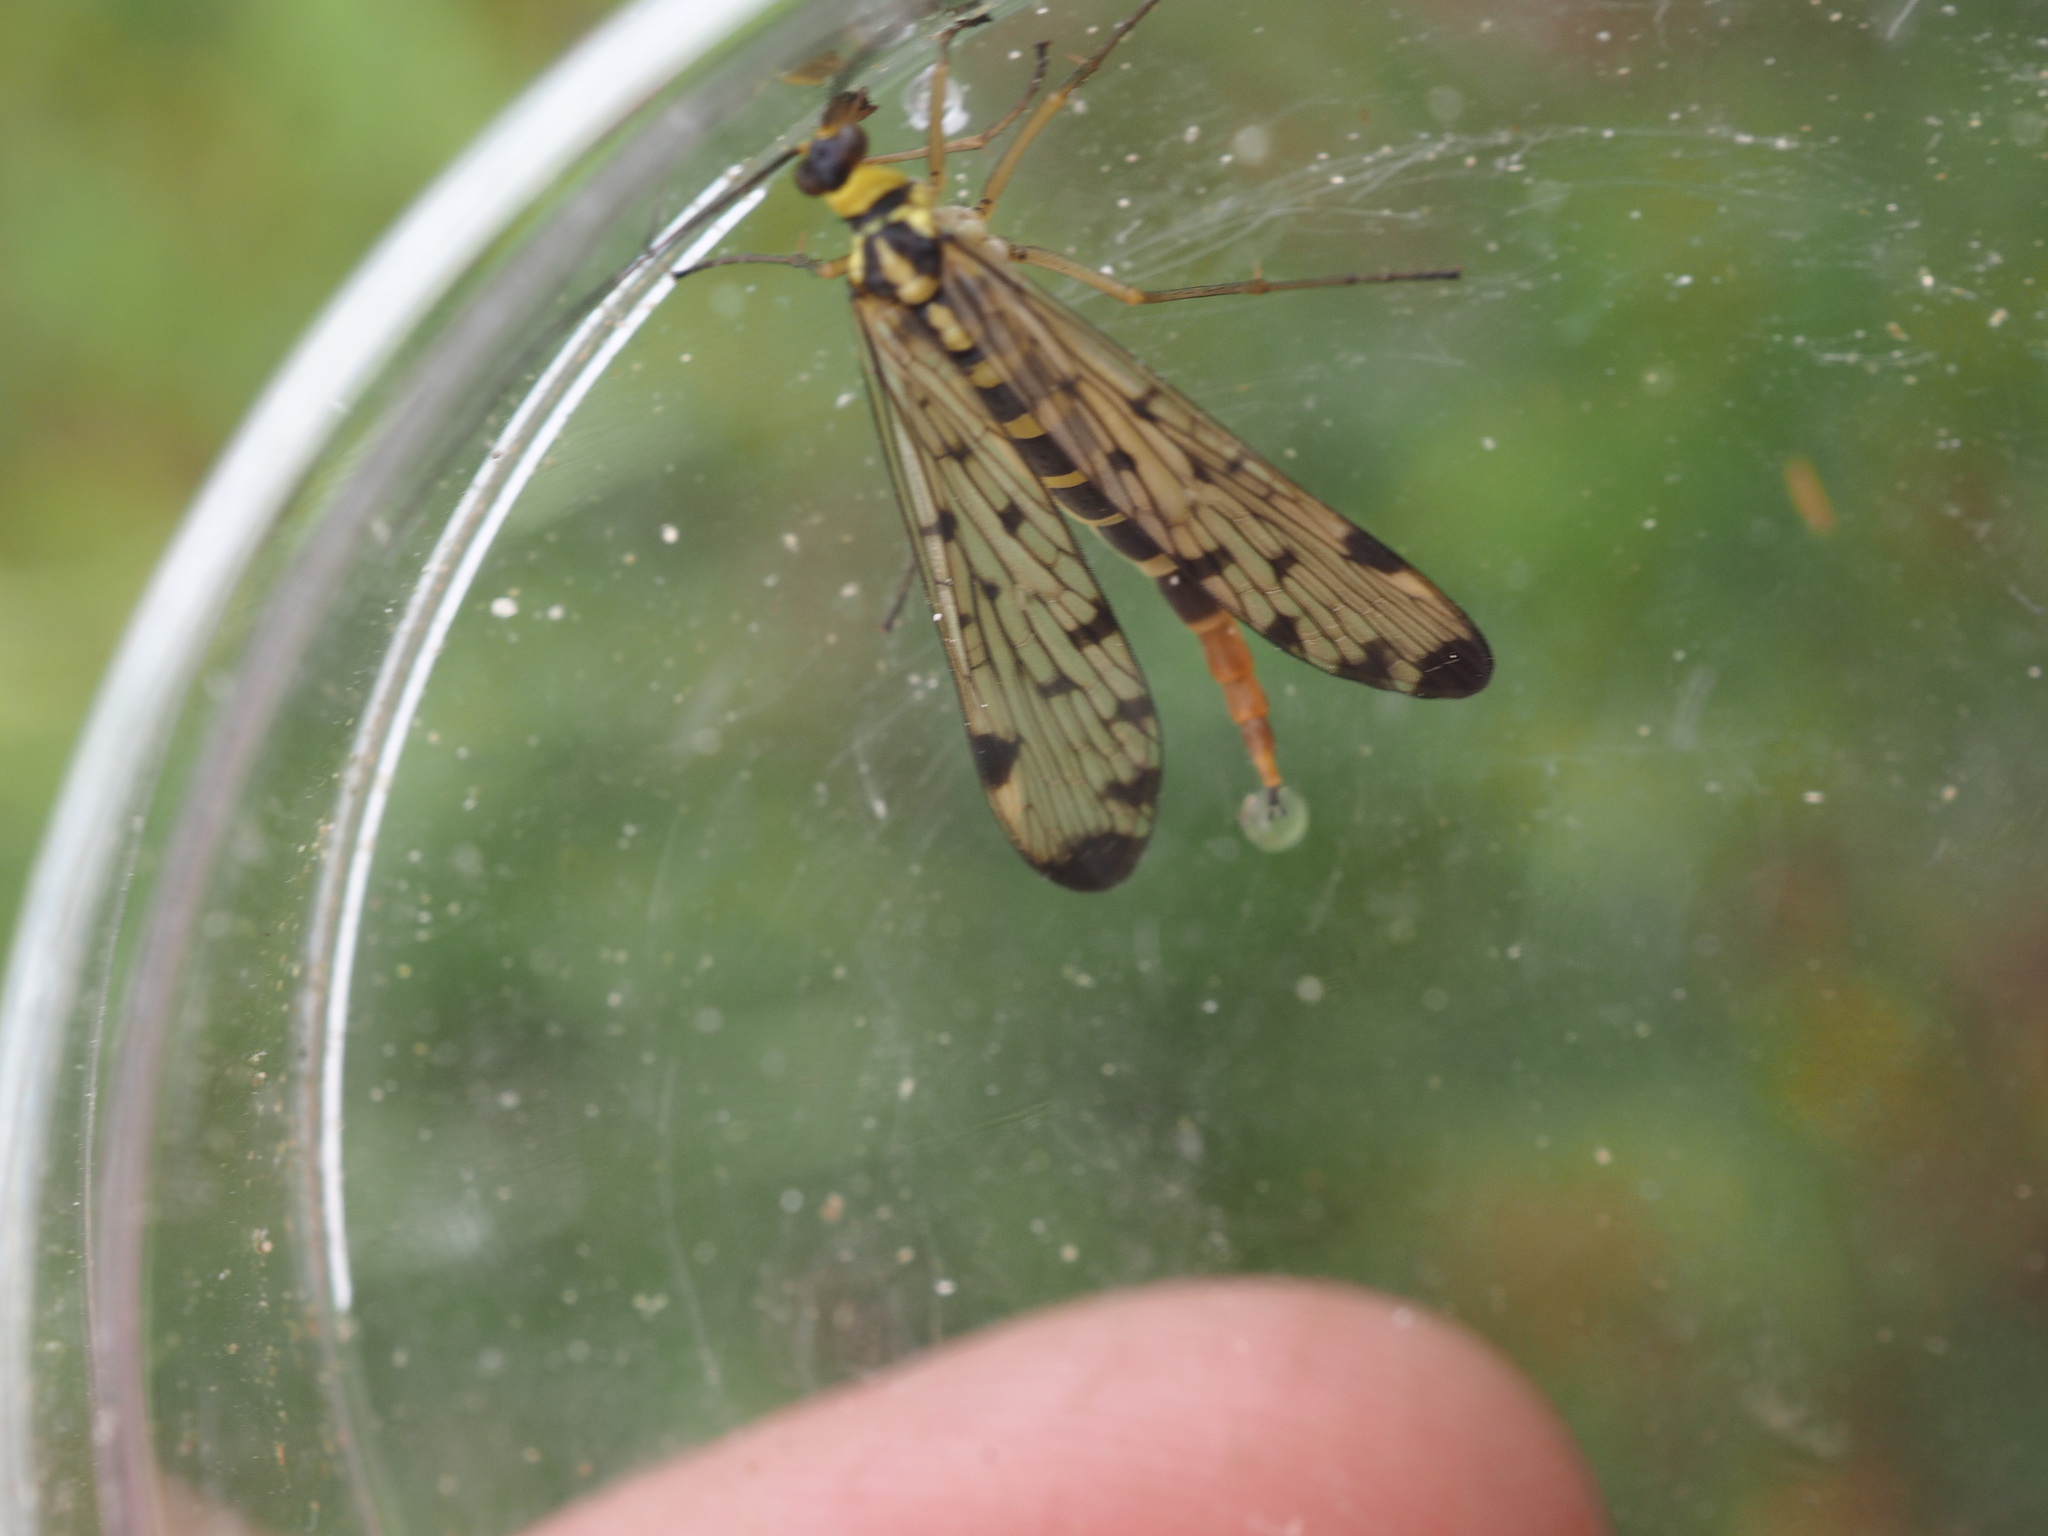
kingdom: Animalia
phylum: Arthropoda
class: Insecta
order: Mecoptera
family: Panorpidae
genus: Panorpa
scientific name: Panorpa germanica
